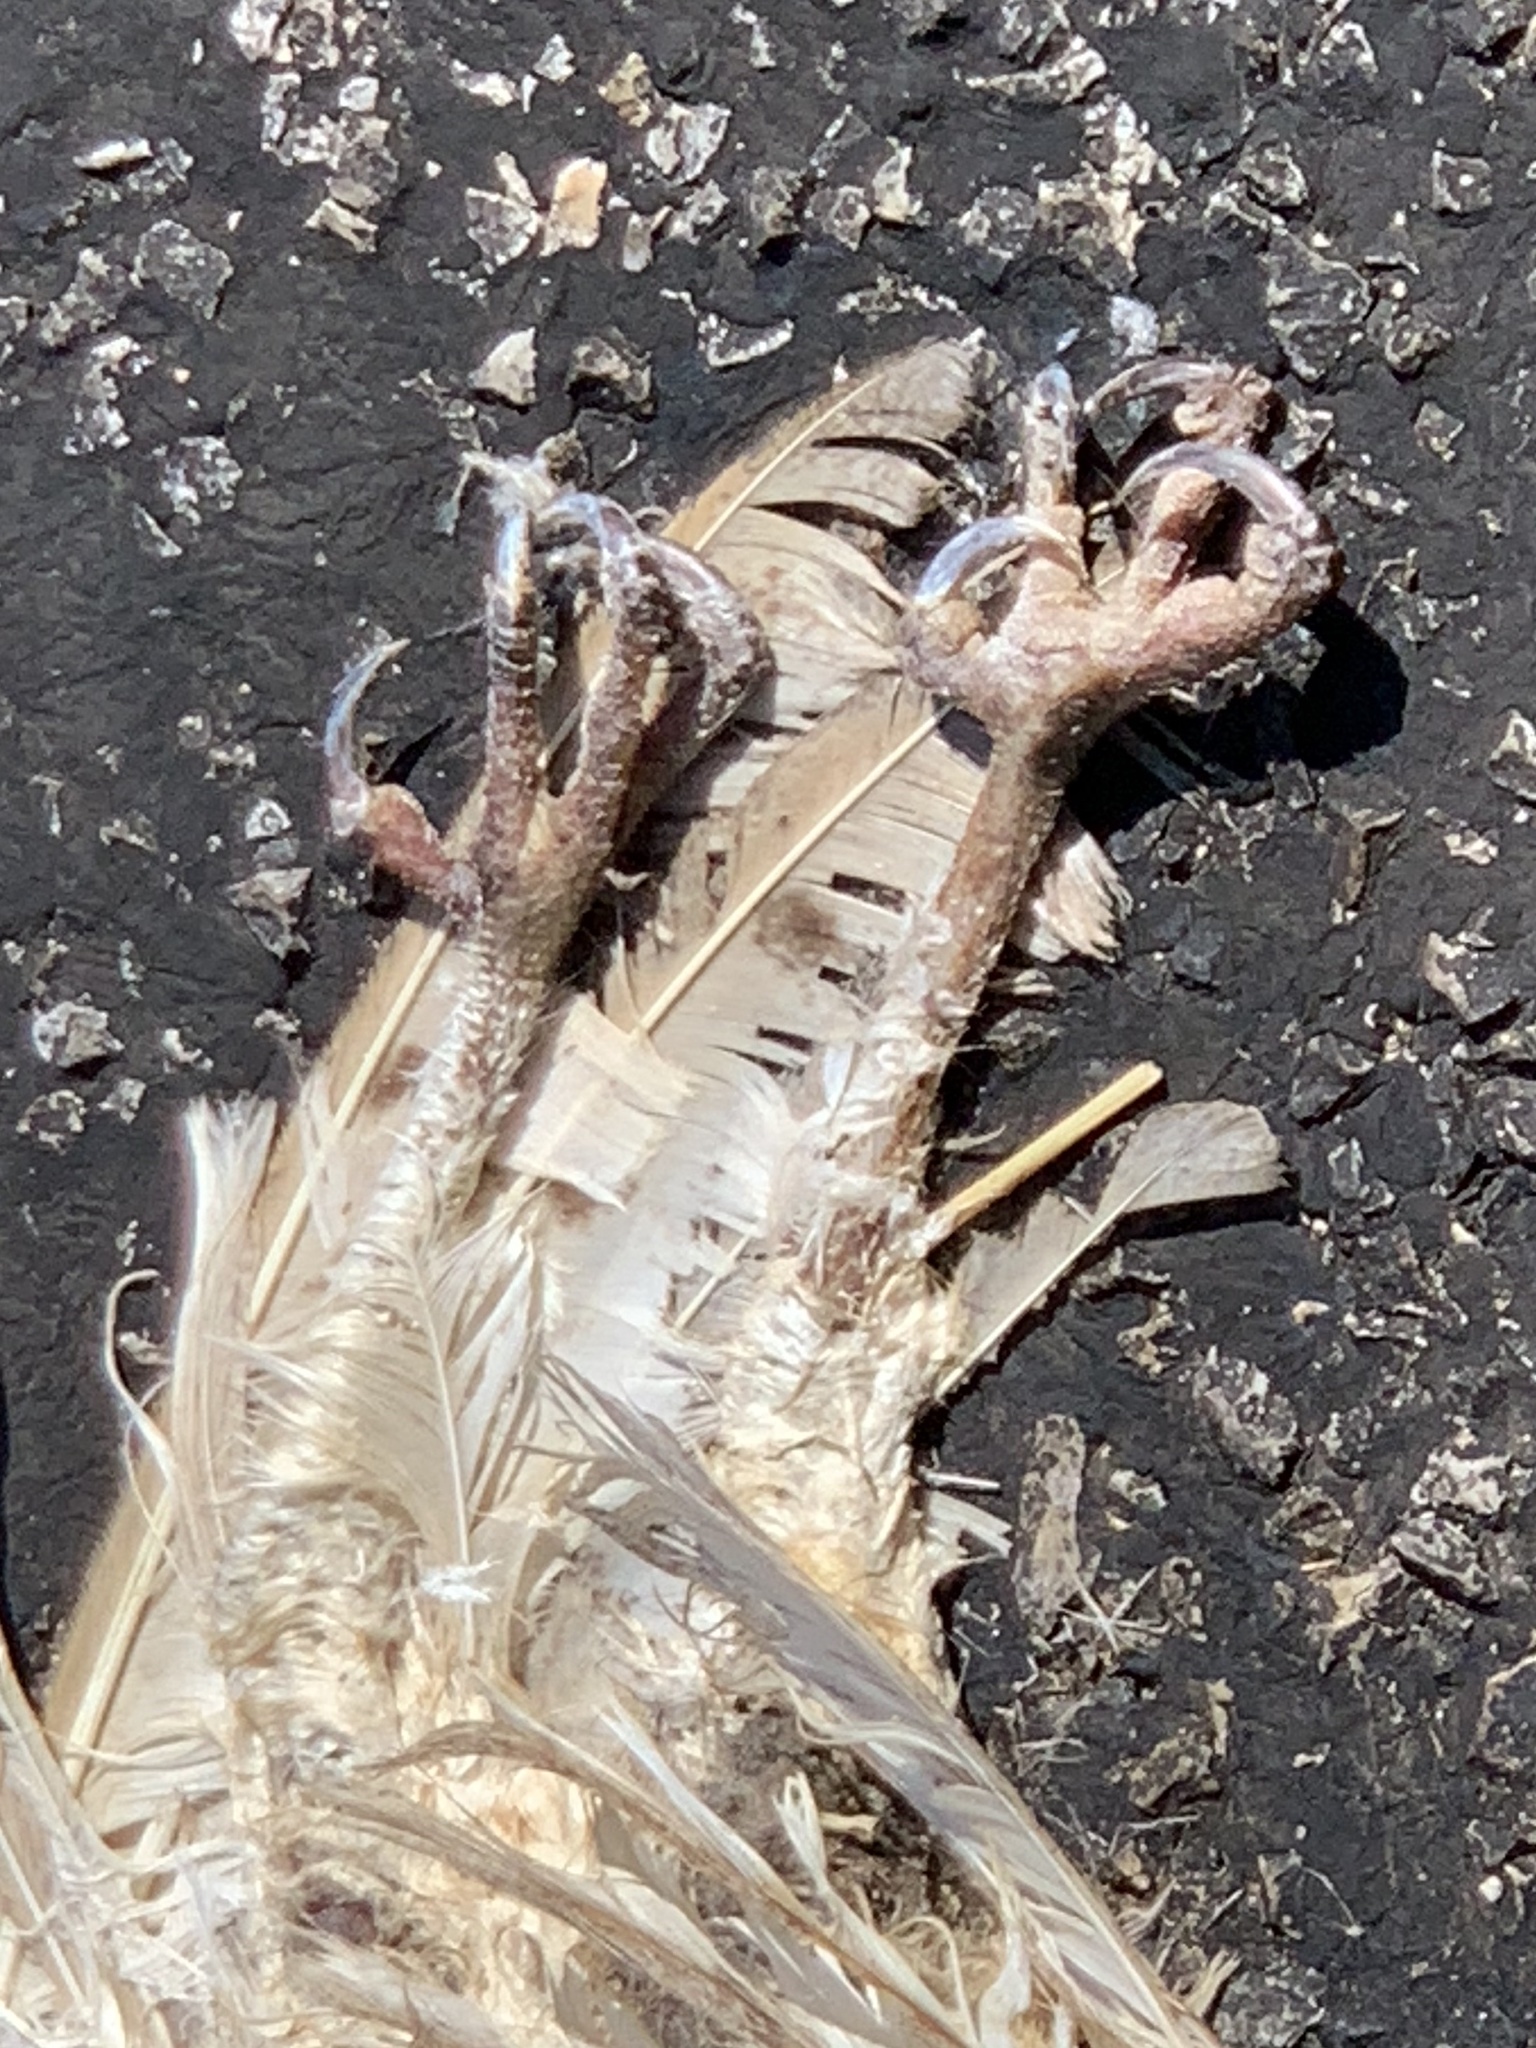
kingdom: Animalia
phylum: Chordata
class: Aves
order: Strigiformes
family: Tytonidae
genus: Tyto
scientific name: Tyto alba
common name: Barn owl
